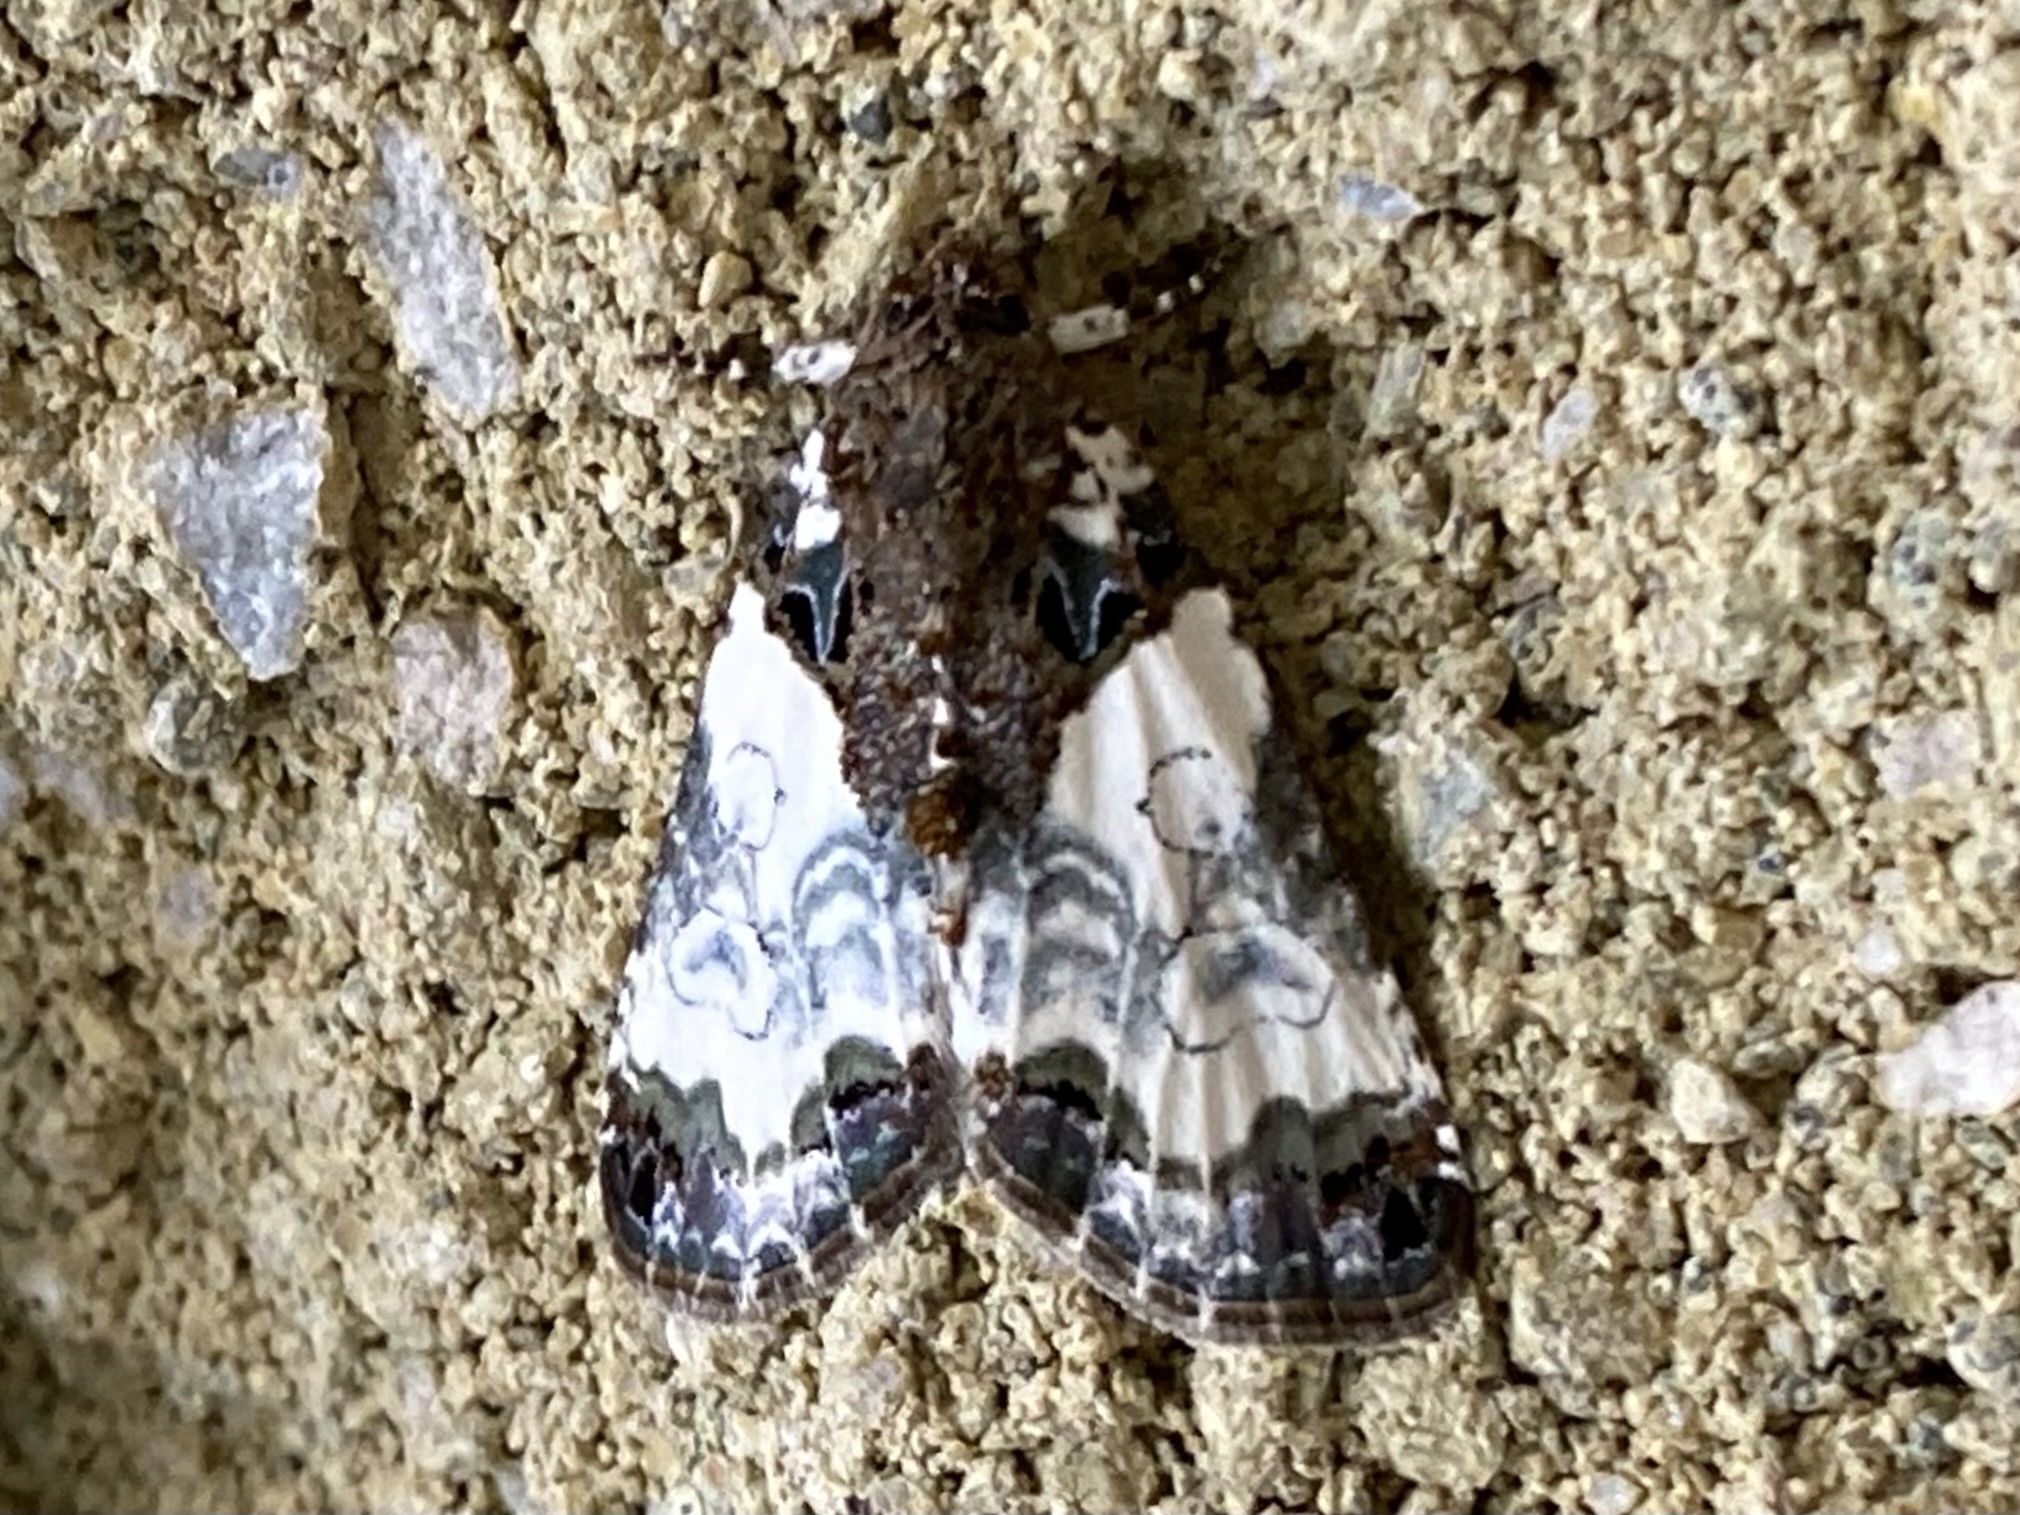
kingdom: Animalia
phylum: Arthropoda
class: Insecta
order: Lepidoptera
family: Noctuidae
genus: Cerma
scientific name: Cerma cerintha
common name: Tufted bird-dropping moth
